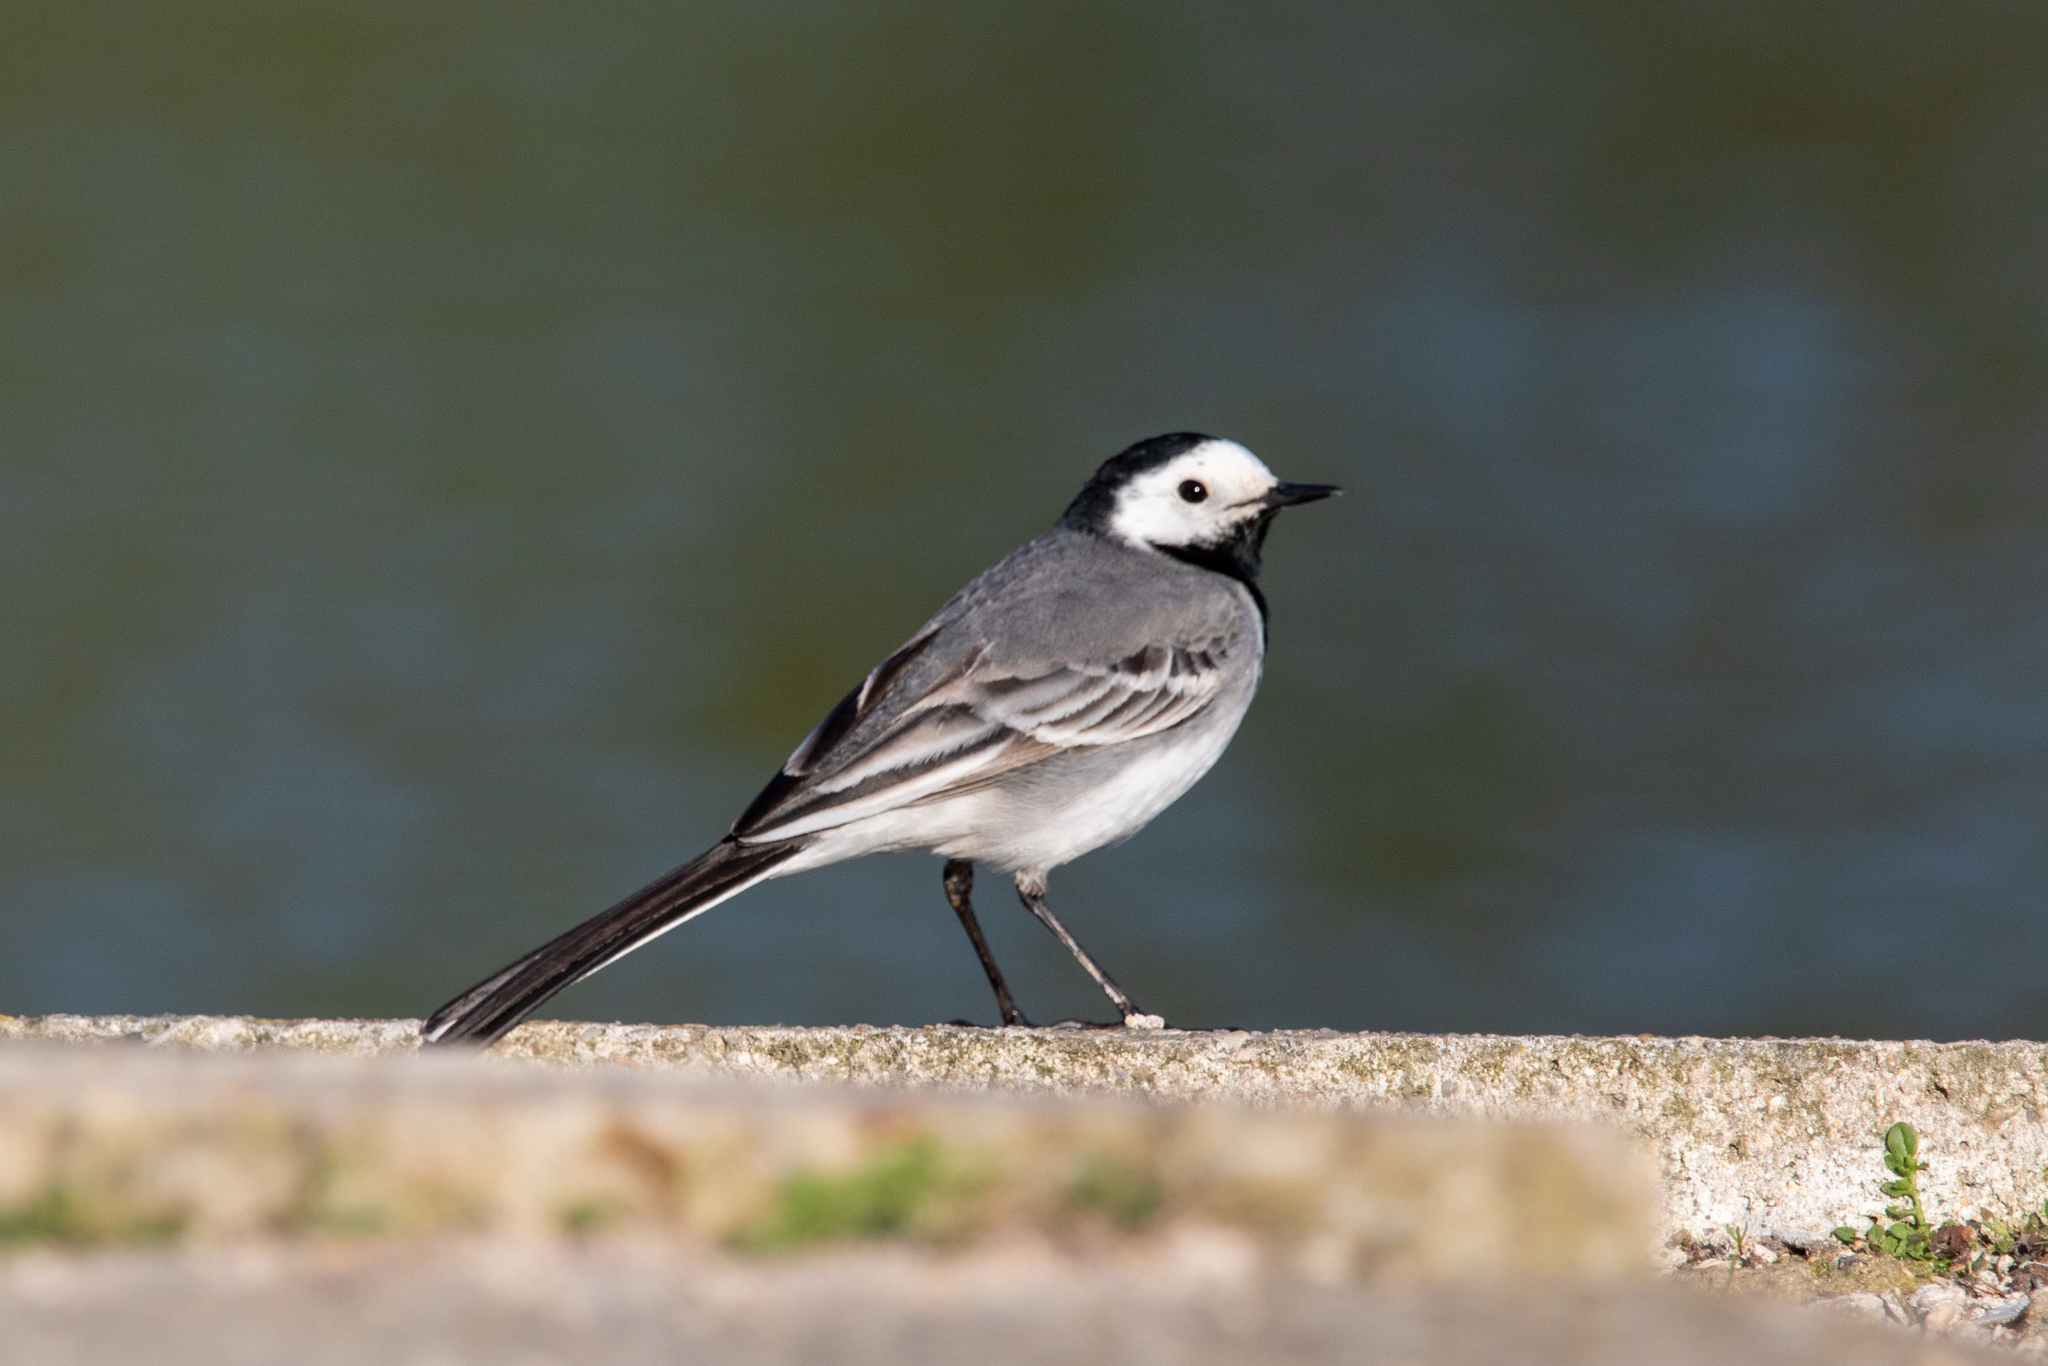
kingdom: Animalia
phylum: Chordata
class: Aves
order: Passeriformes
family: Motacillidae
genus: Motacilla
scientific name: Motacilla alba
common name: White wagtail
